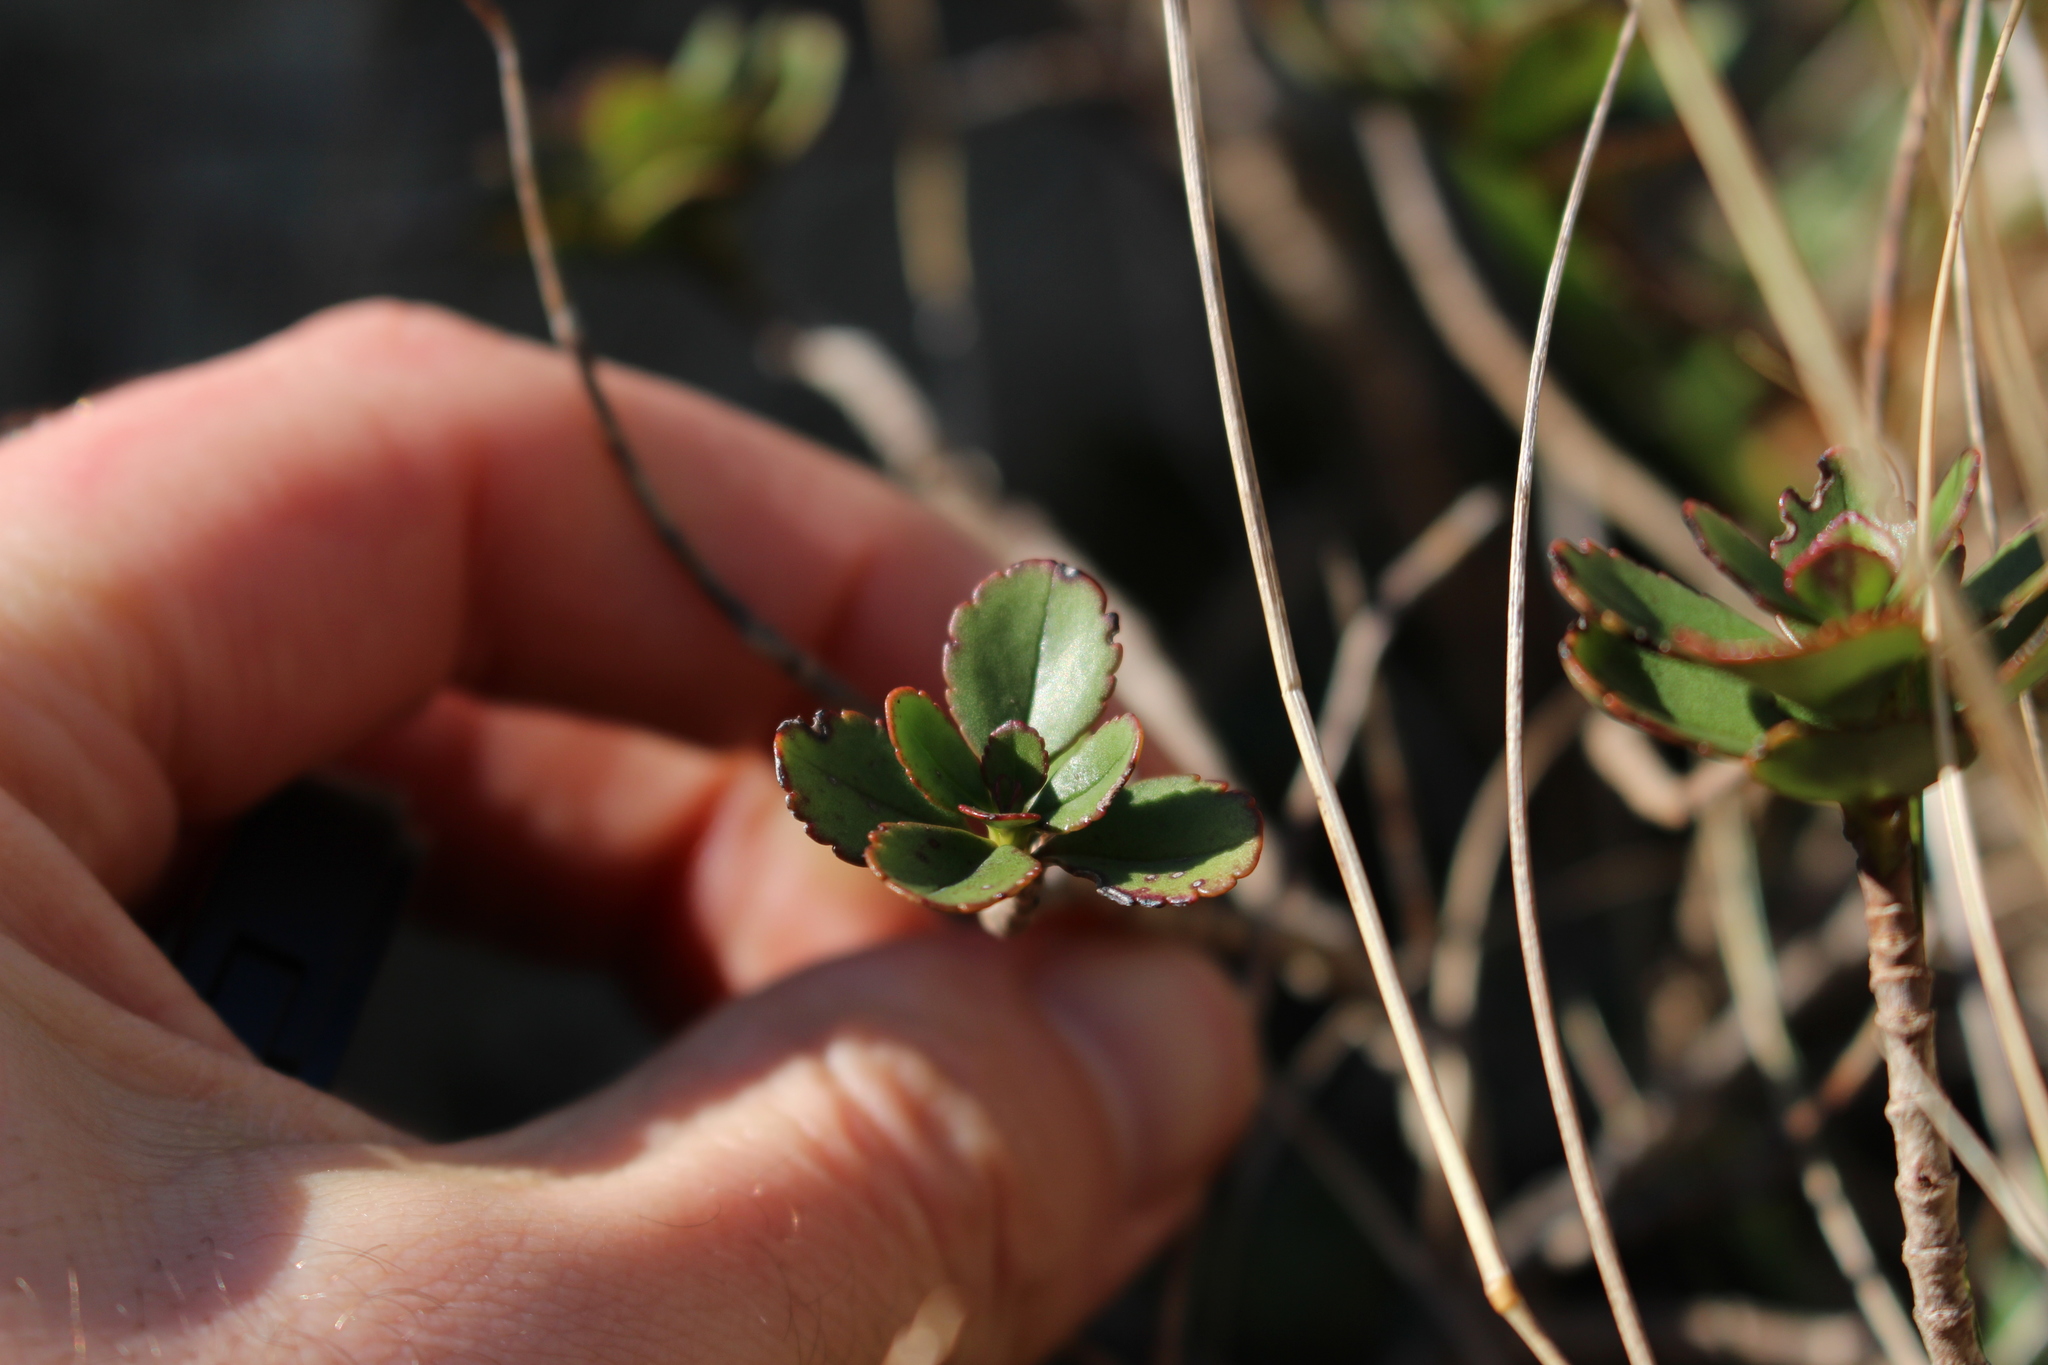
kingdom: Plantae
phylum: Tracheophyta
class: Magnoliopsida
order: Lamiales
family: Plantaginaceae
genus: Veronica
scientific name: Veronica lavaudiana
